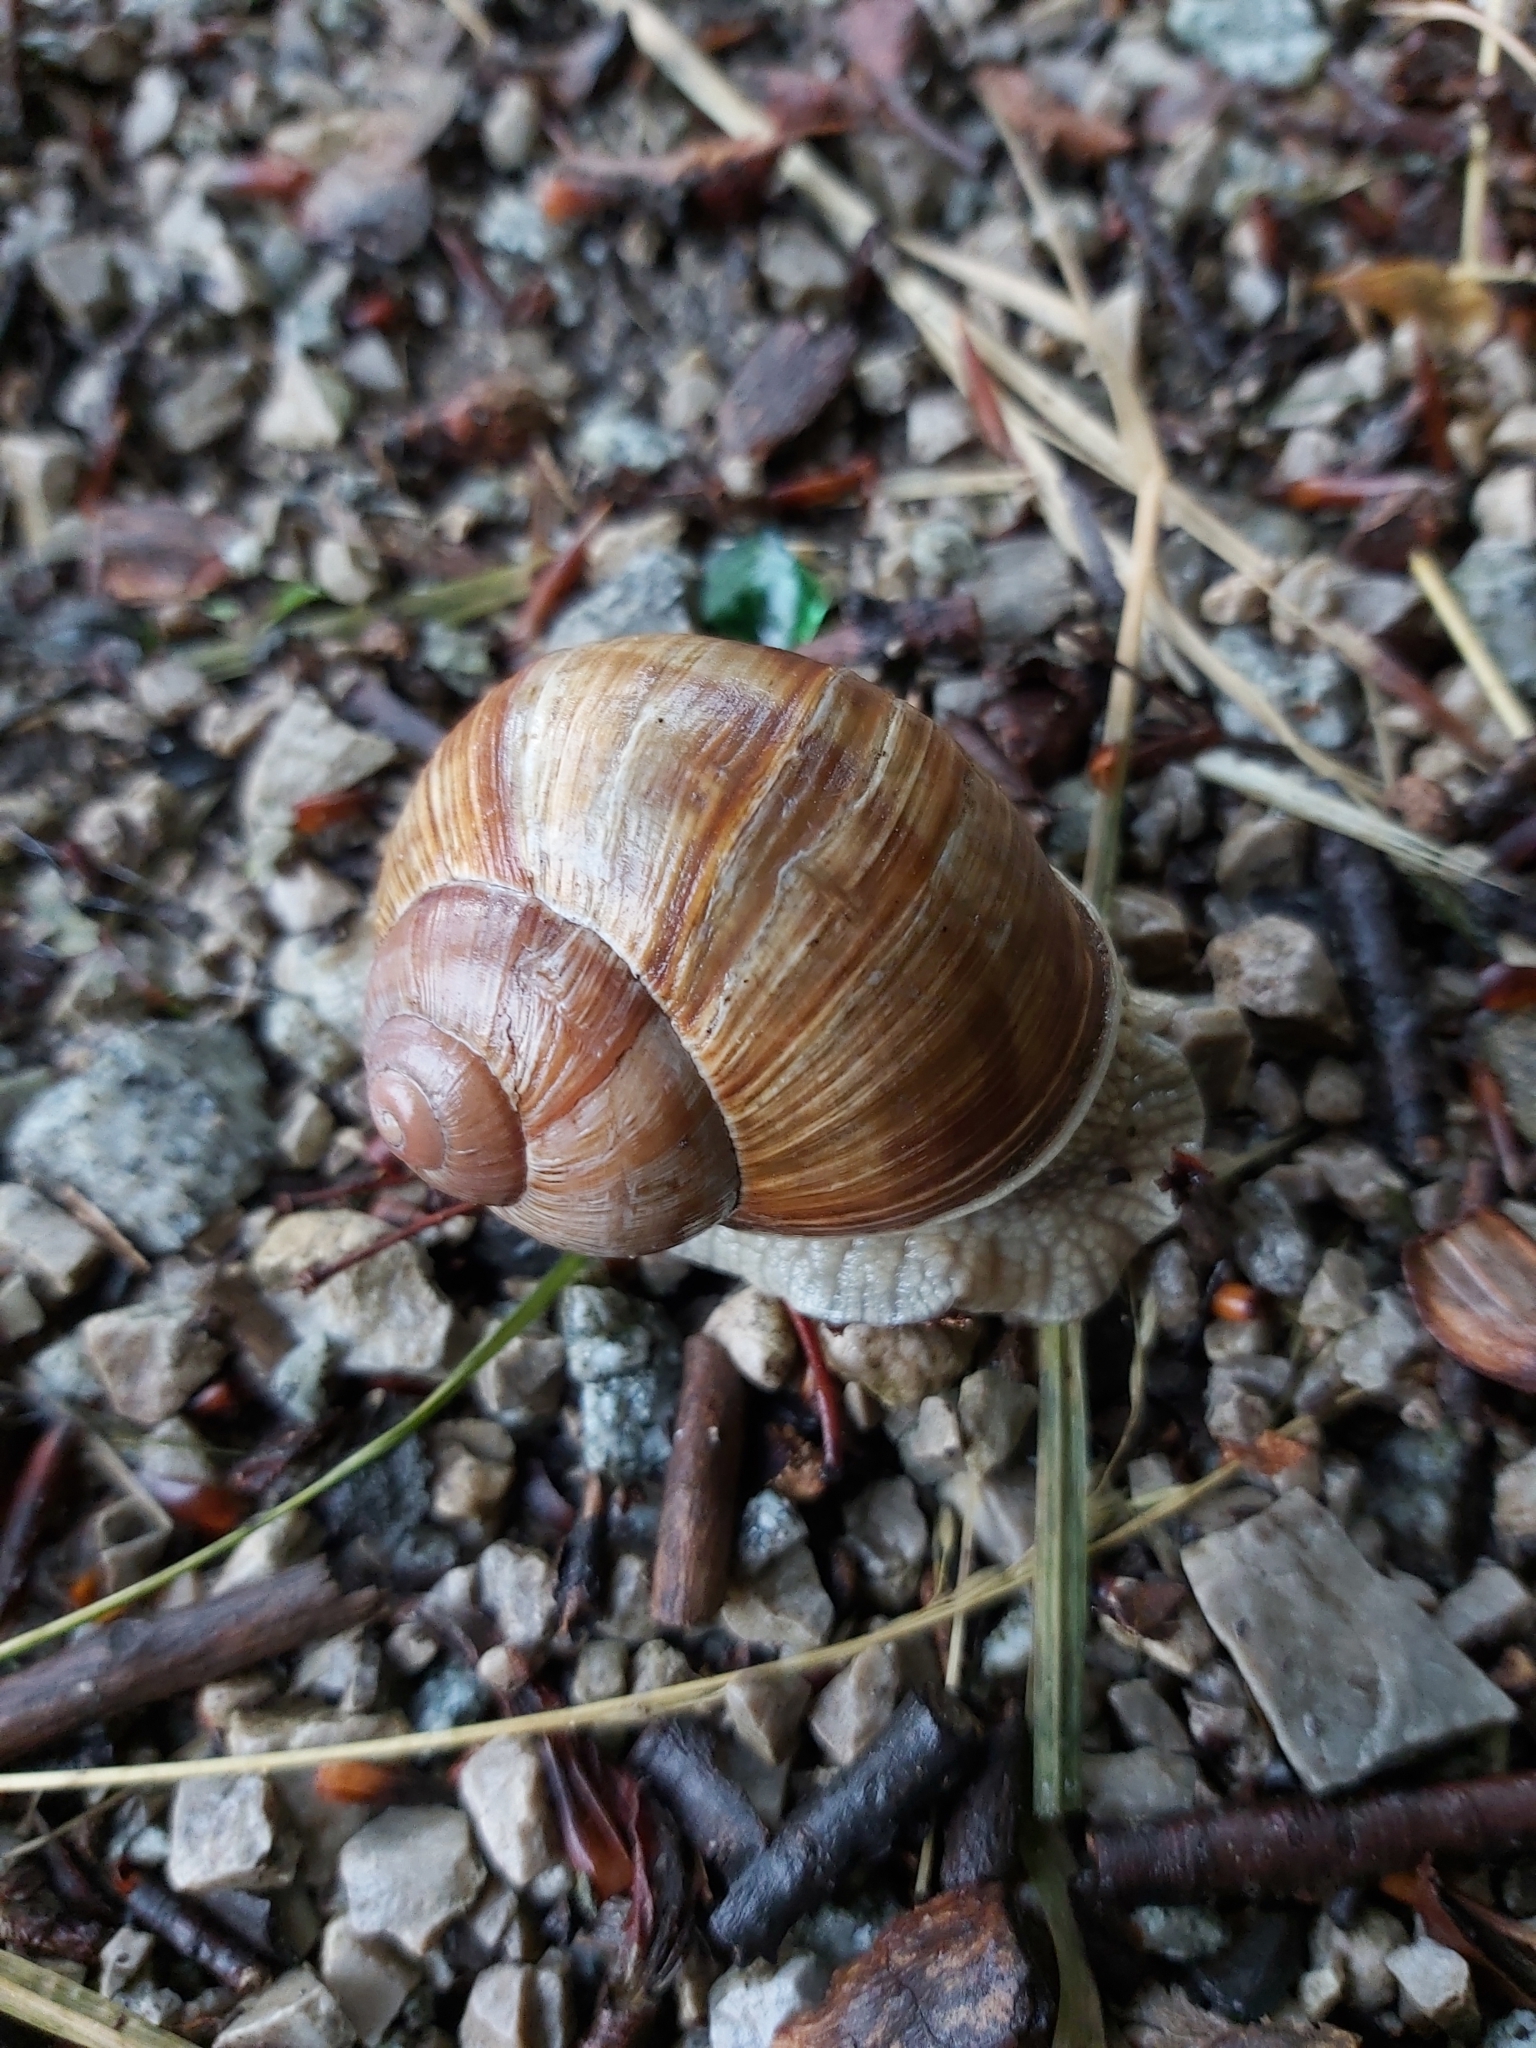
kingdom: Animalia
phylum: Mollusca
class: Gastropoda
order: Stylommatophora
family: Helicidae
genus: Helix
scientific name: Helix pomatia
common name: Roman snail
